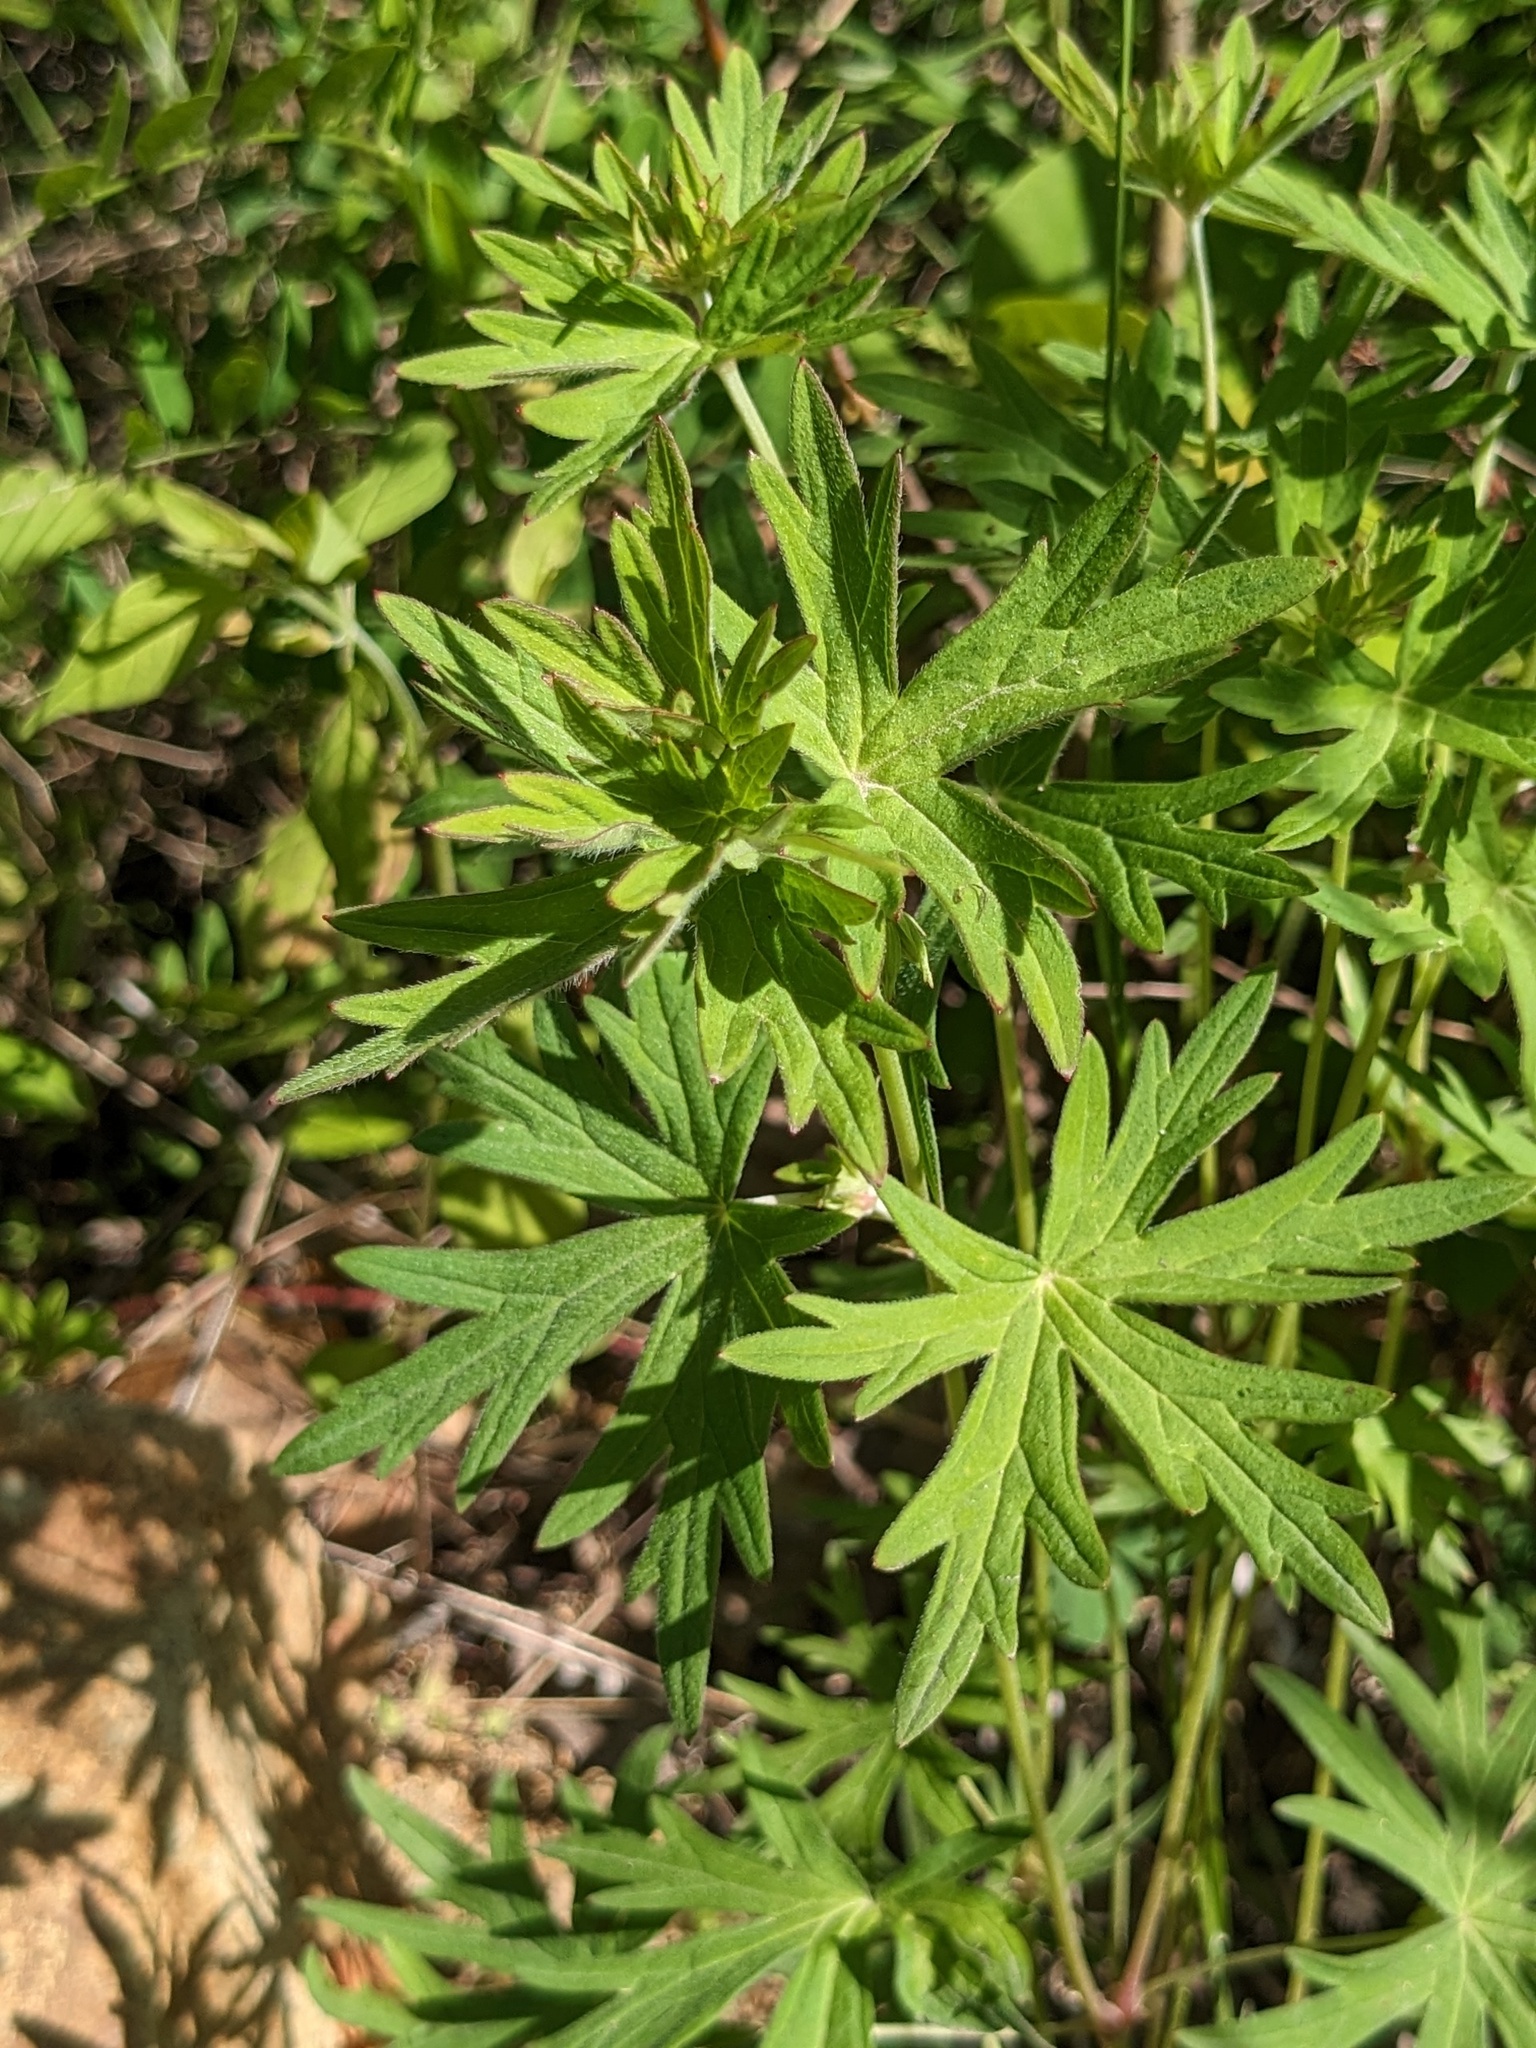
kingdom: Plantae
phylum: Tracheophyta
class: Magnoliopsida
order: Geraniales
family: Geraniaceae
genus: Geranium
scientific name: Geranium dahuricum
